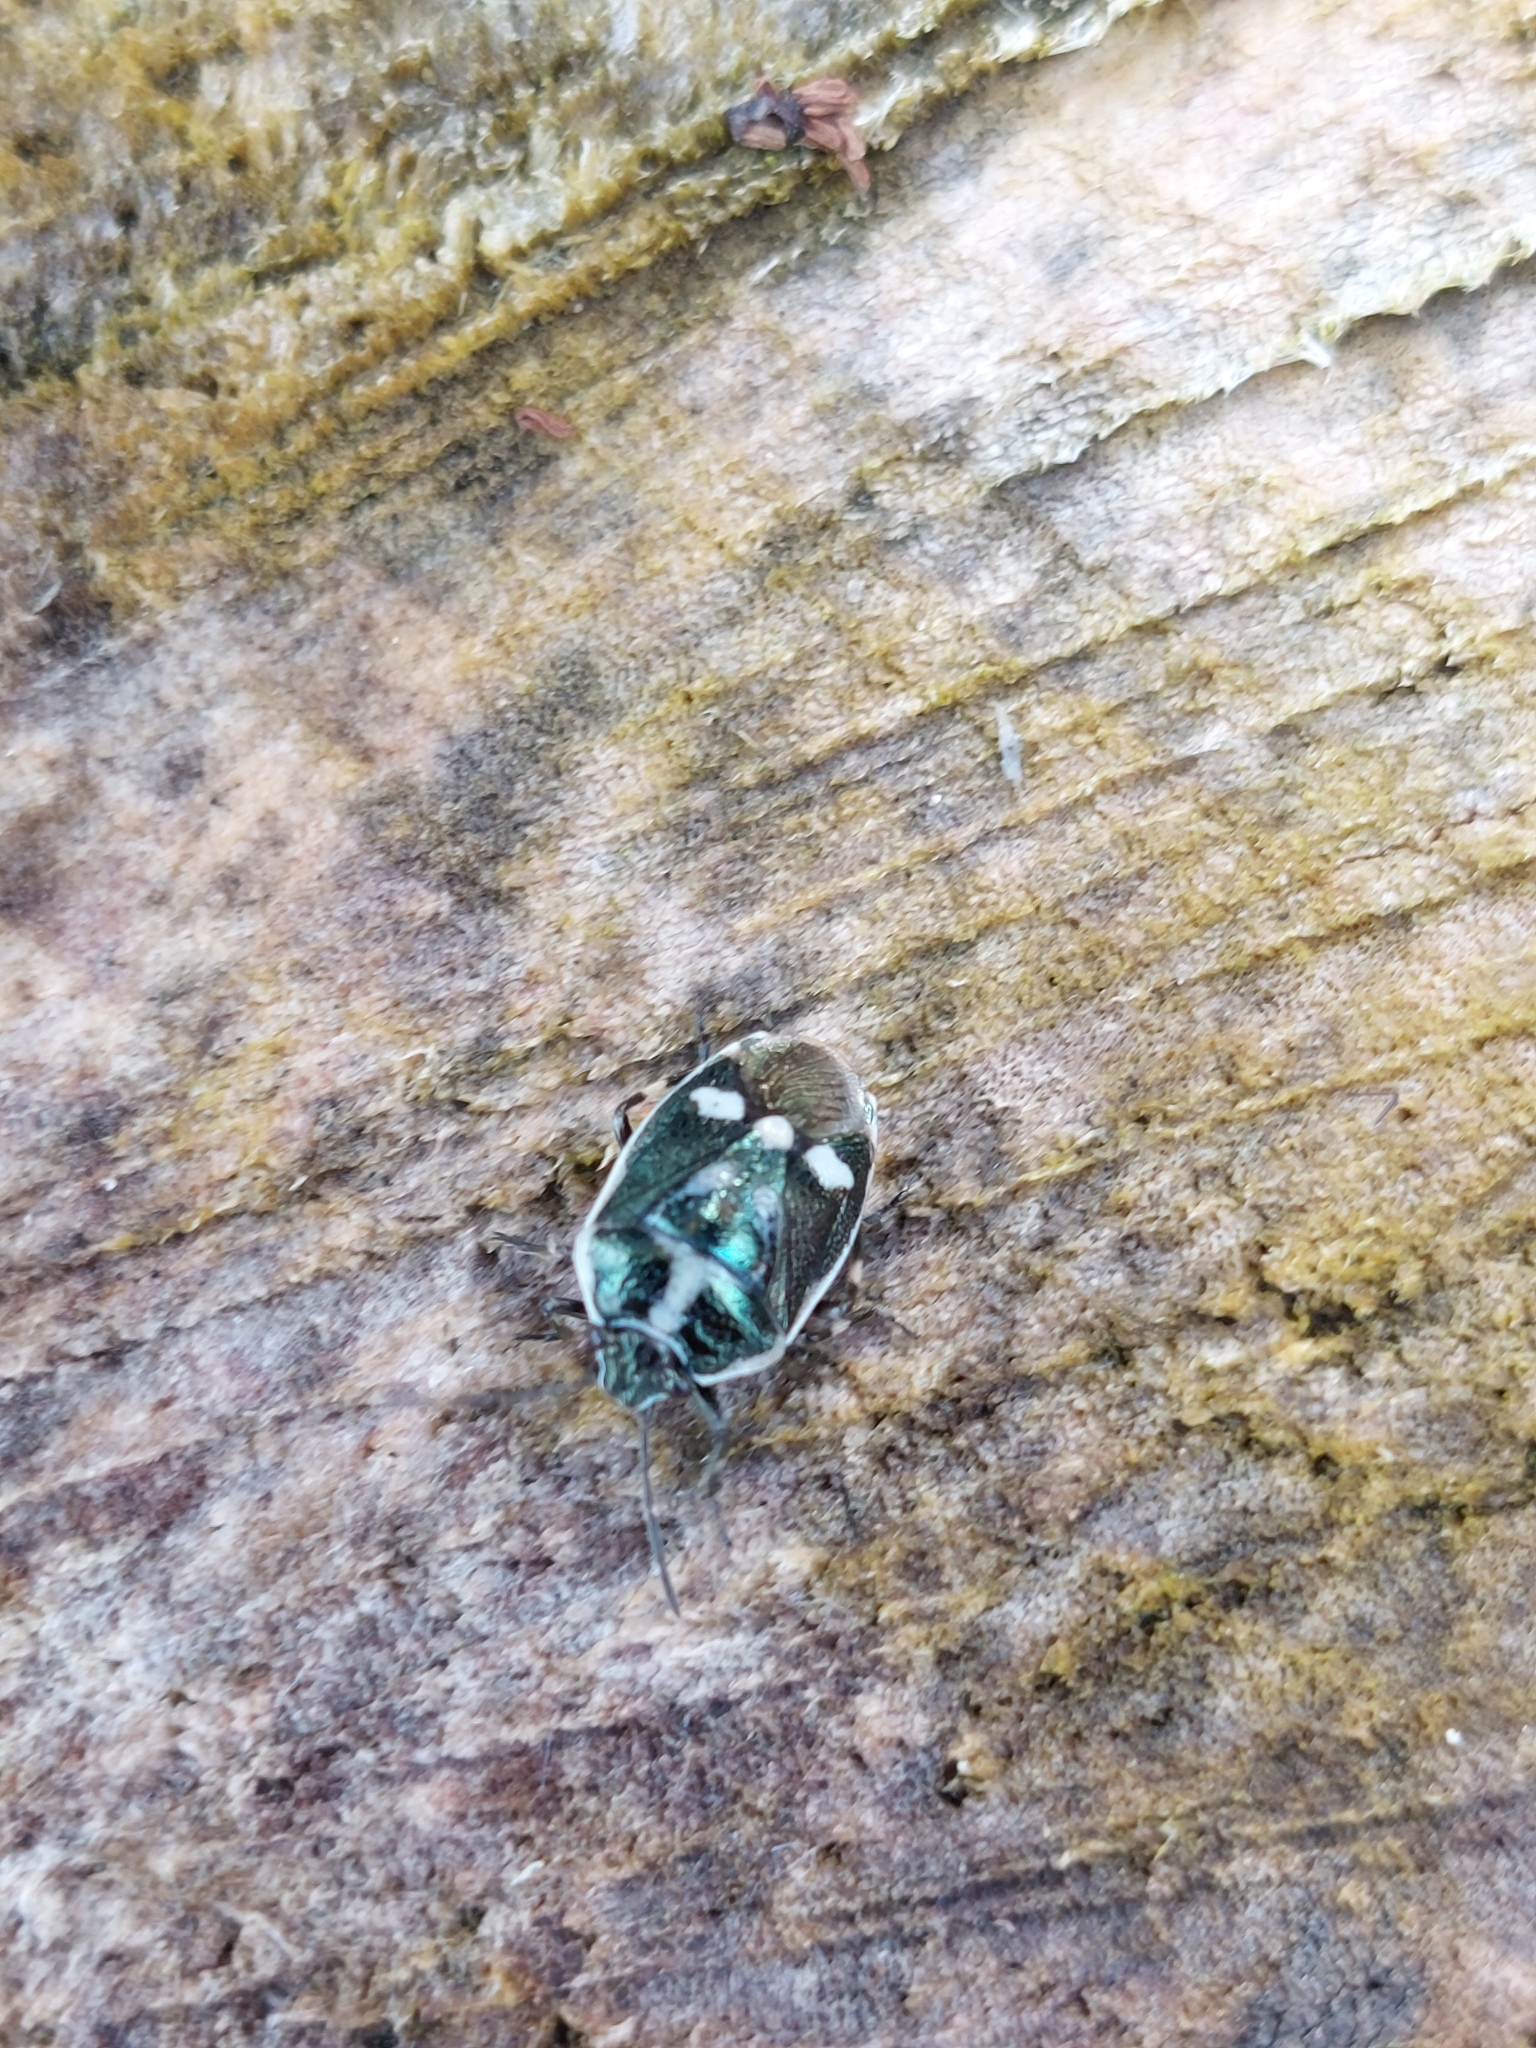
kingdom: Animalia
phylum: Arthropoda
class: Insecta
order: Hemiptera
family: Pentatomidae
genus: Eurydema
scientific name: Eurydema oleracea
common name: Cabbage bug
